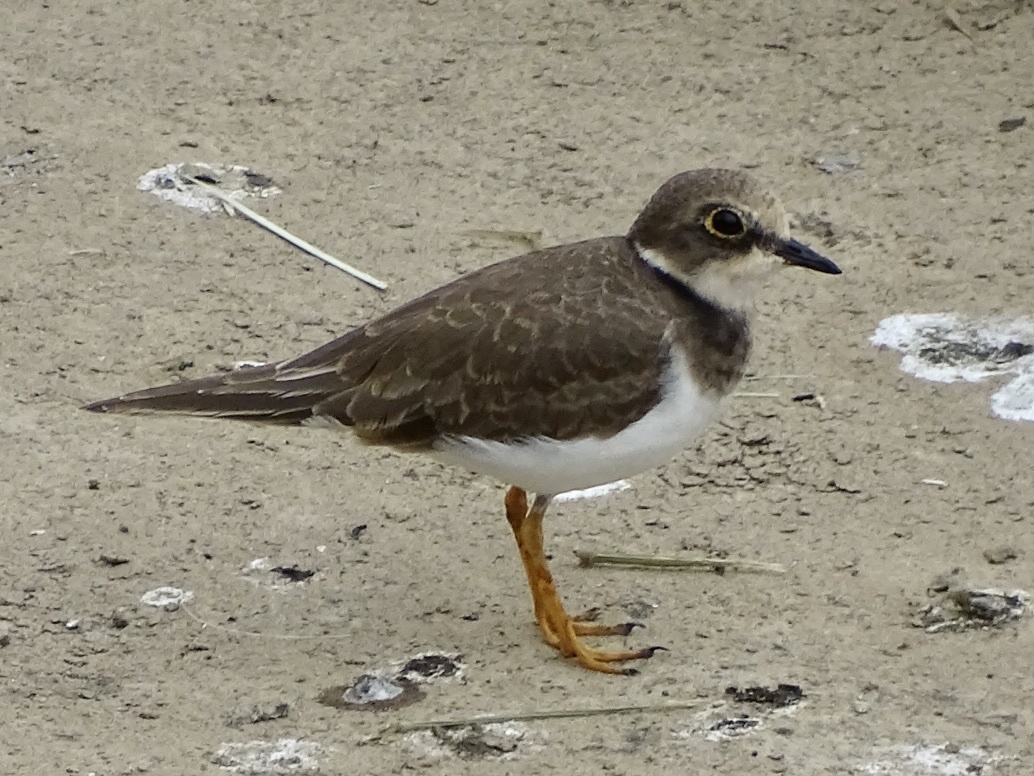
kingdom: Animalia
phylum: Chordata
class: Aves
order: Charadriiformes
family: Charadriidae
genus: Charadrius
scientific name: Charadrius dubius
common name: Little ringed plover
